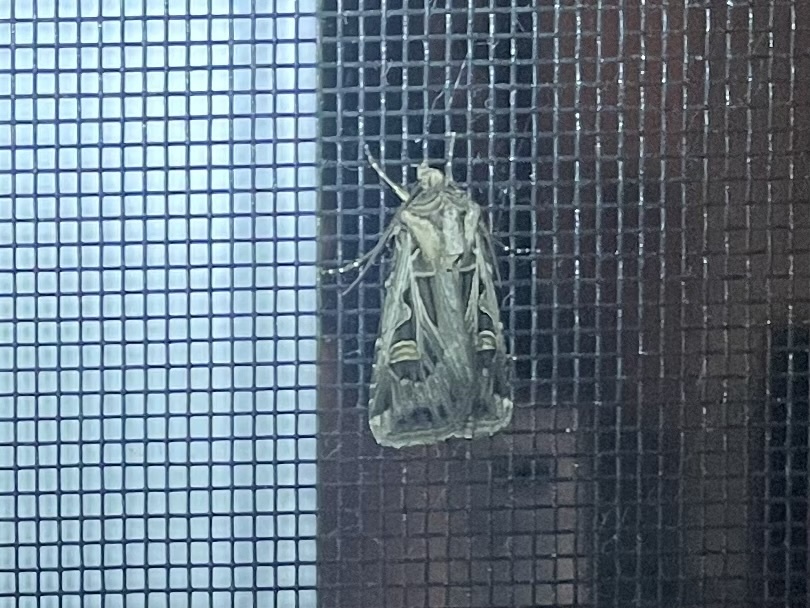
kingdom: Animalia
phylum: Arthropoda
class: Insecta
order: Lepidoptera
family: Noctuidae
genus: Feltia
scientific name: Feltia jaculifera
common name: Dingy cutworm moth
